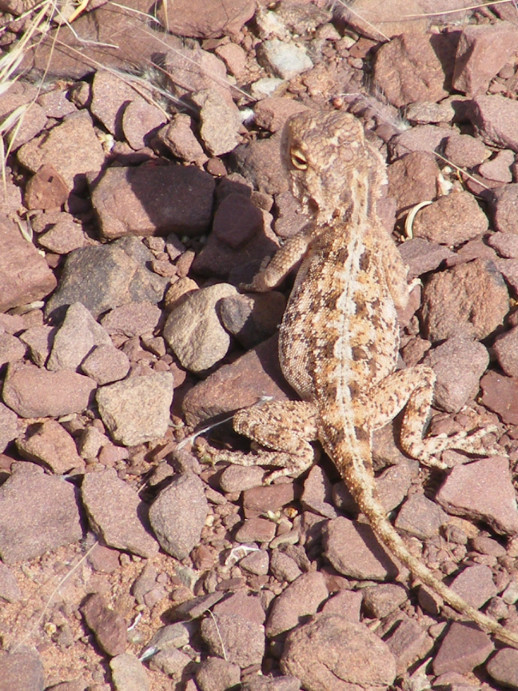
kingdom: Animalia
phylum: Chordata
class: Squamata
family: Agamidae
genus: Agama
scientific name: Agama aculeata
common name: Common ground agama
